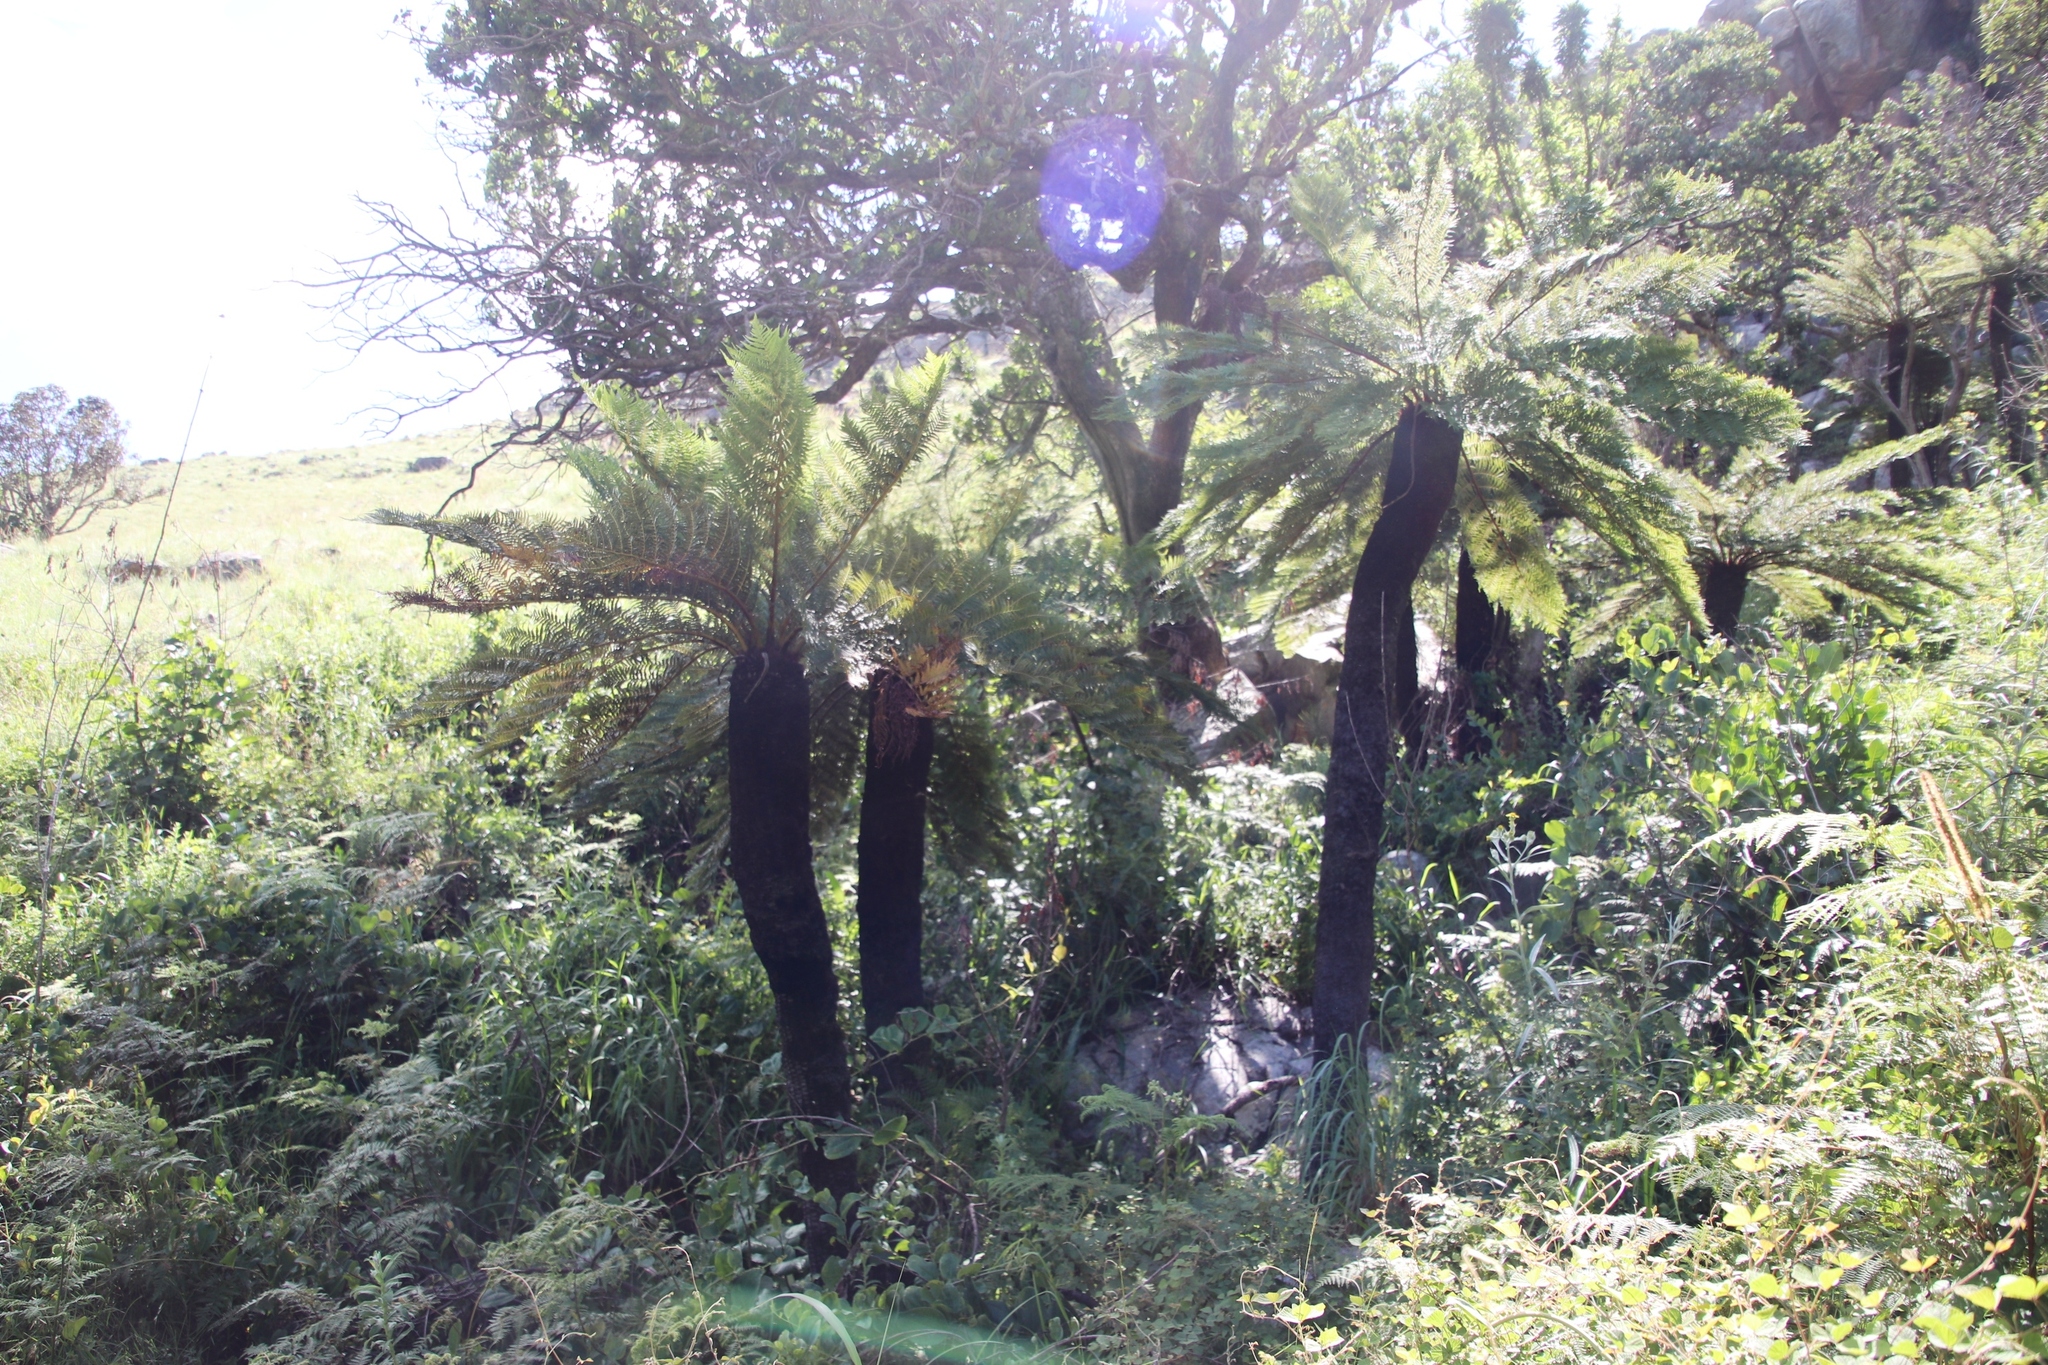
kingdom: Plantae
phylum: Tracheophyta
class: Polypodiopsida
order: Cyatheales
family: Cyatheaceae
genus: Alsophila
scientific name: Alsophila dregei
